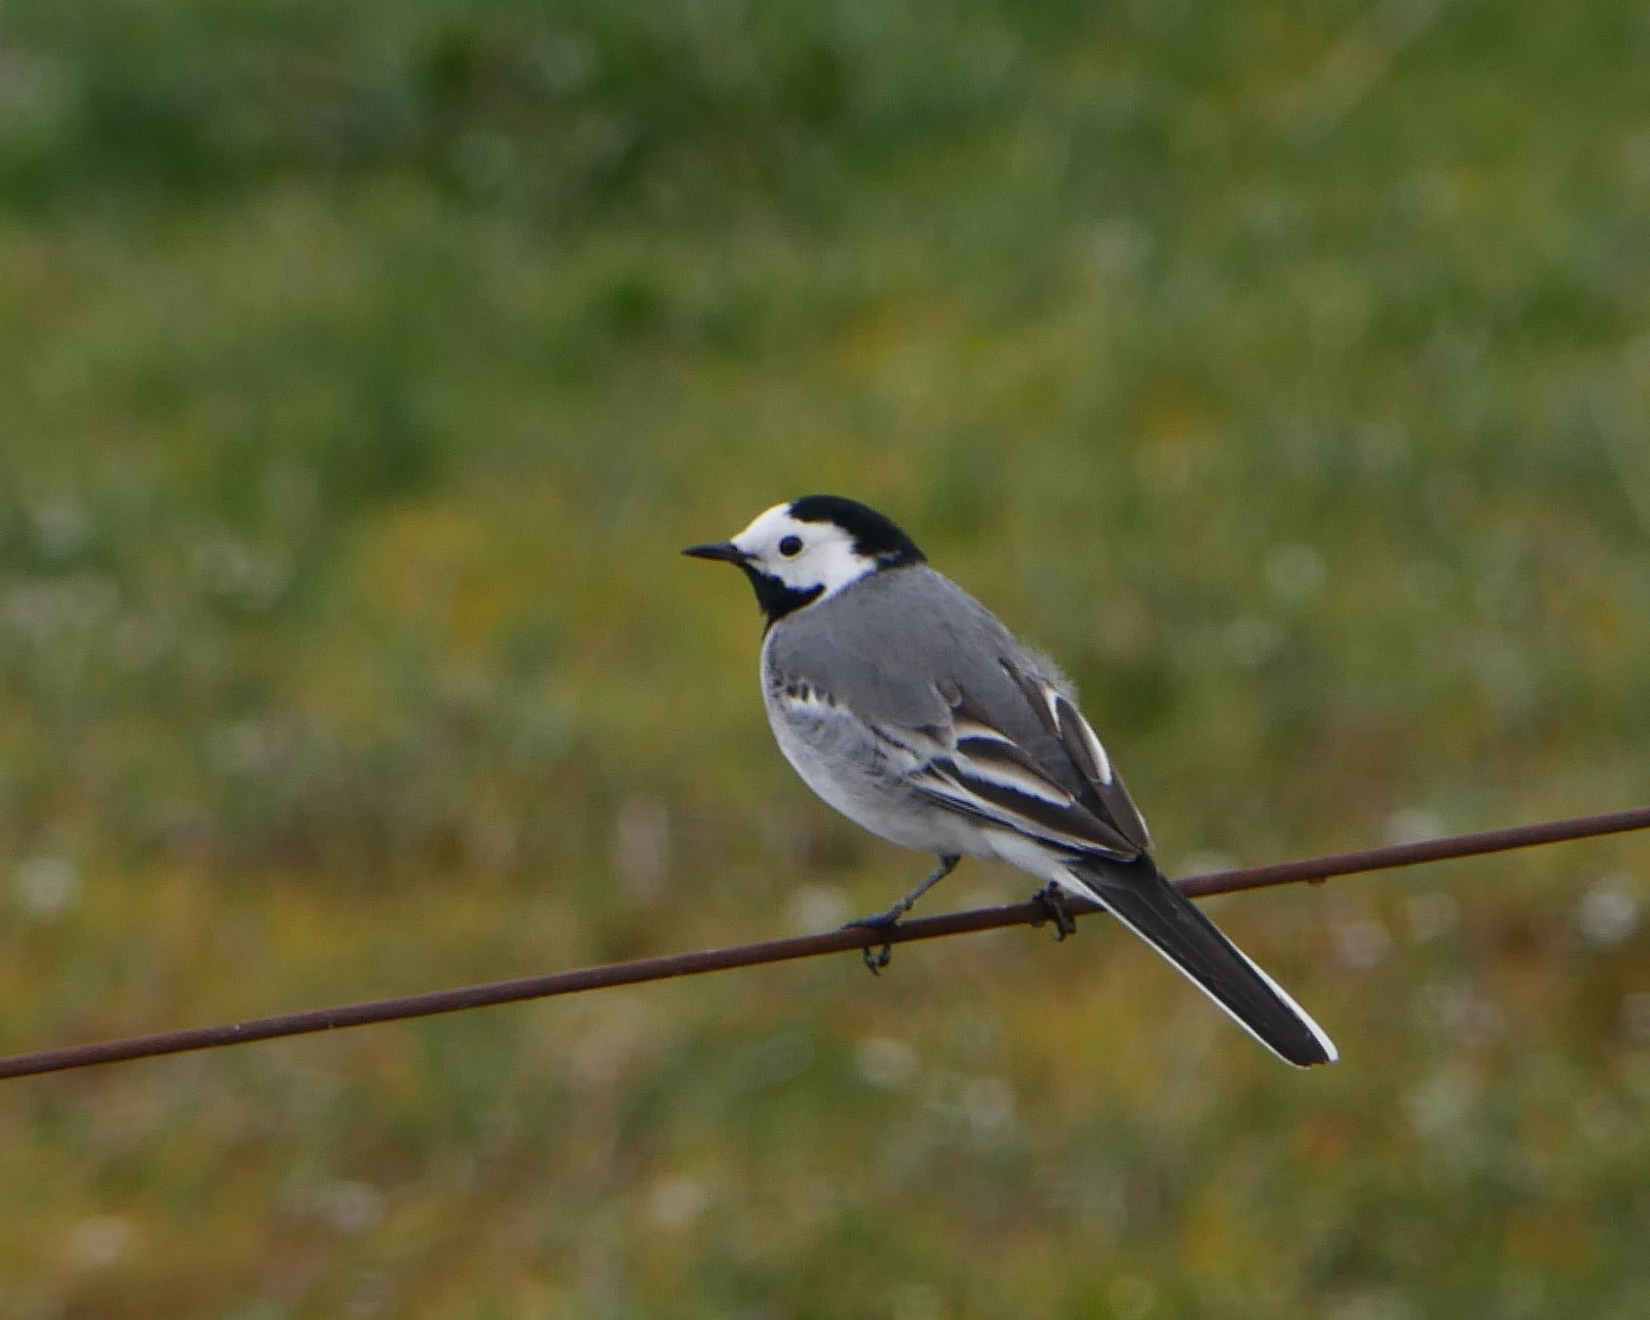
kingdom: Animalia
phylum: Chordata
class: Aves
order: Passeriformes
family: Motacillidae
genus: Motacilla
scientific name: Motacilla alba
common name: White wagtail
